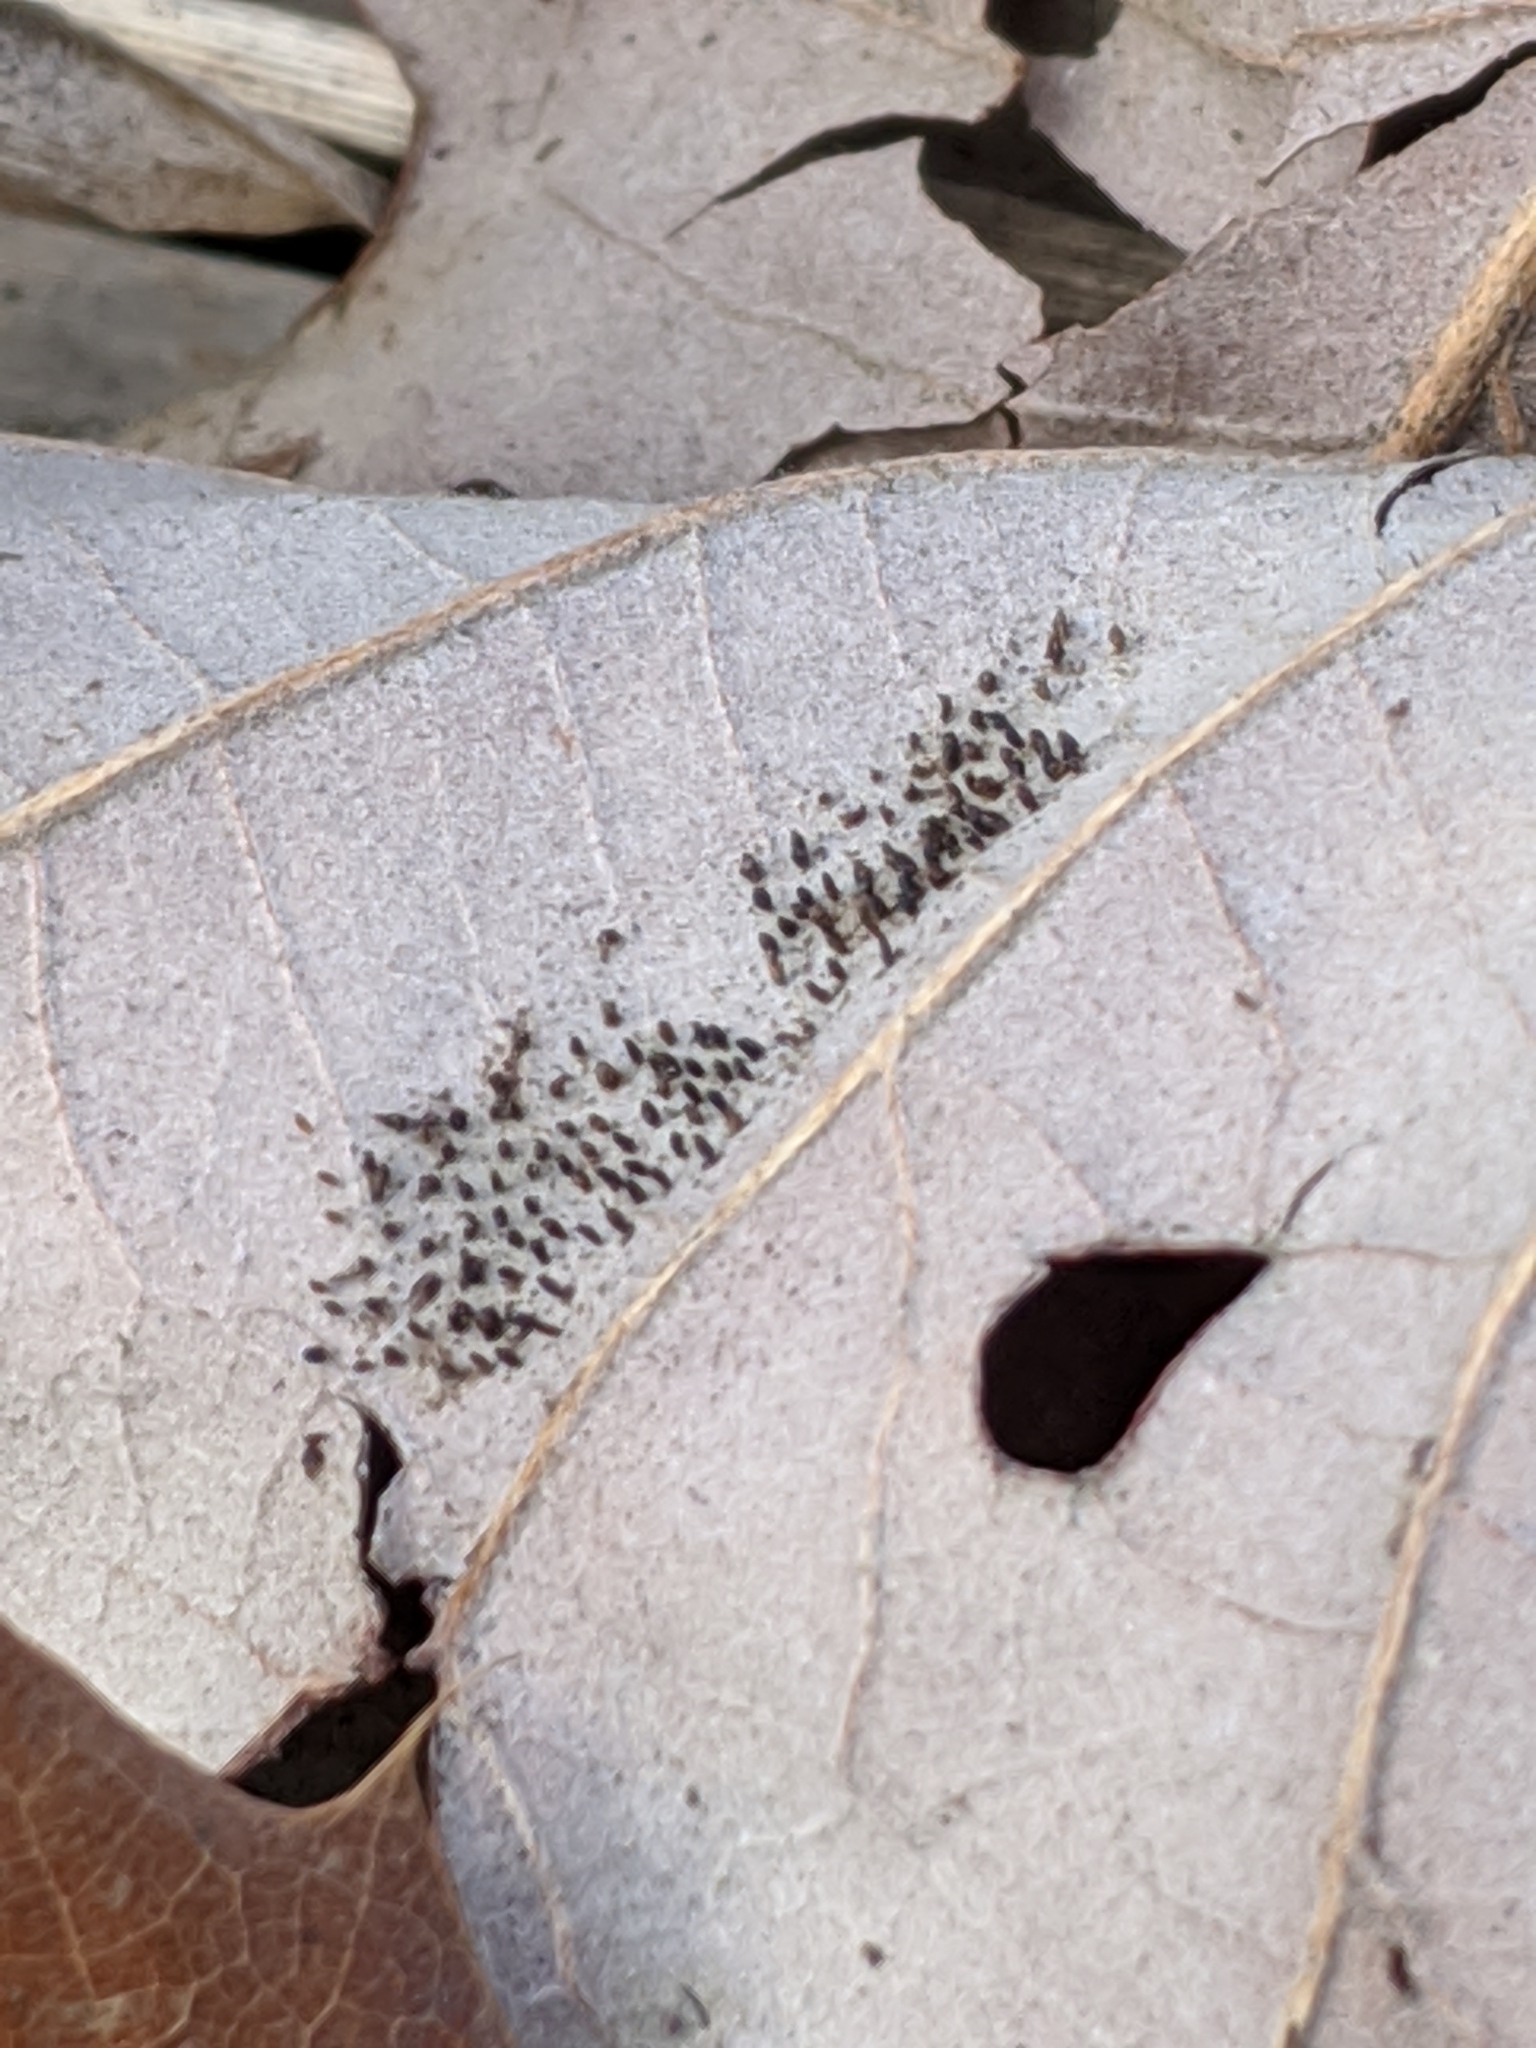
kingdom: Animalia
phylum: Arthropoda
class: Insecta
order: Hemiptera
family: Tingidae
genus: Corythucha
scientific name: Corythucha arcuata
